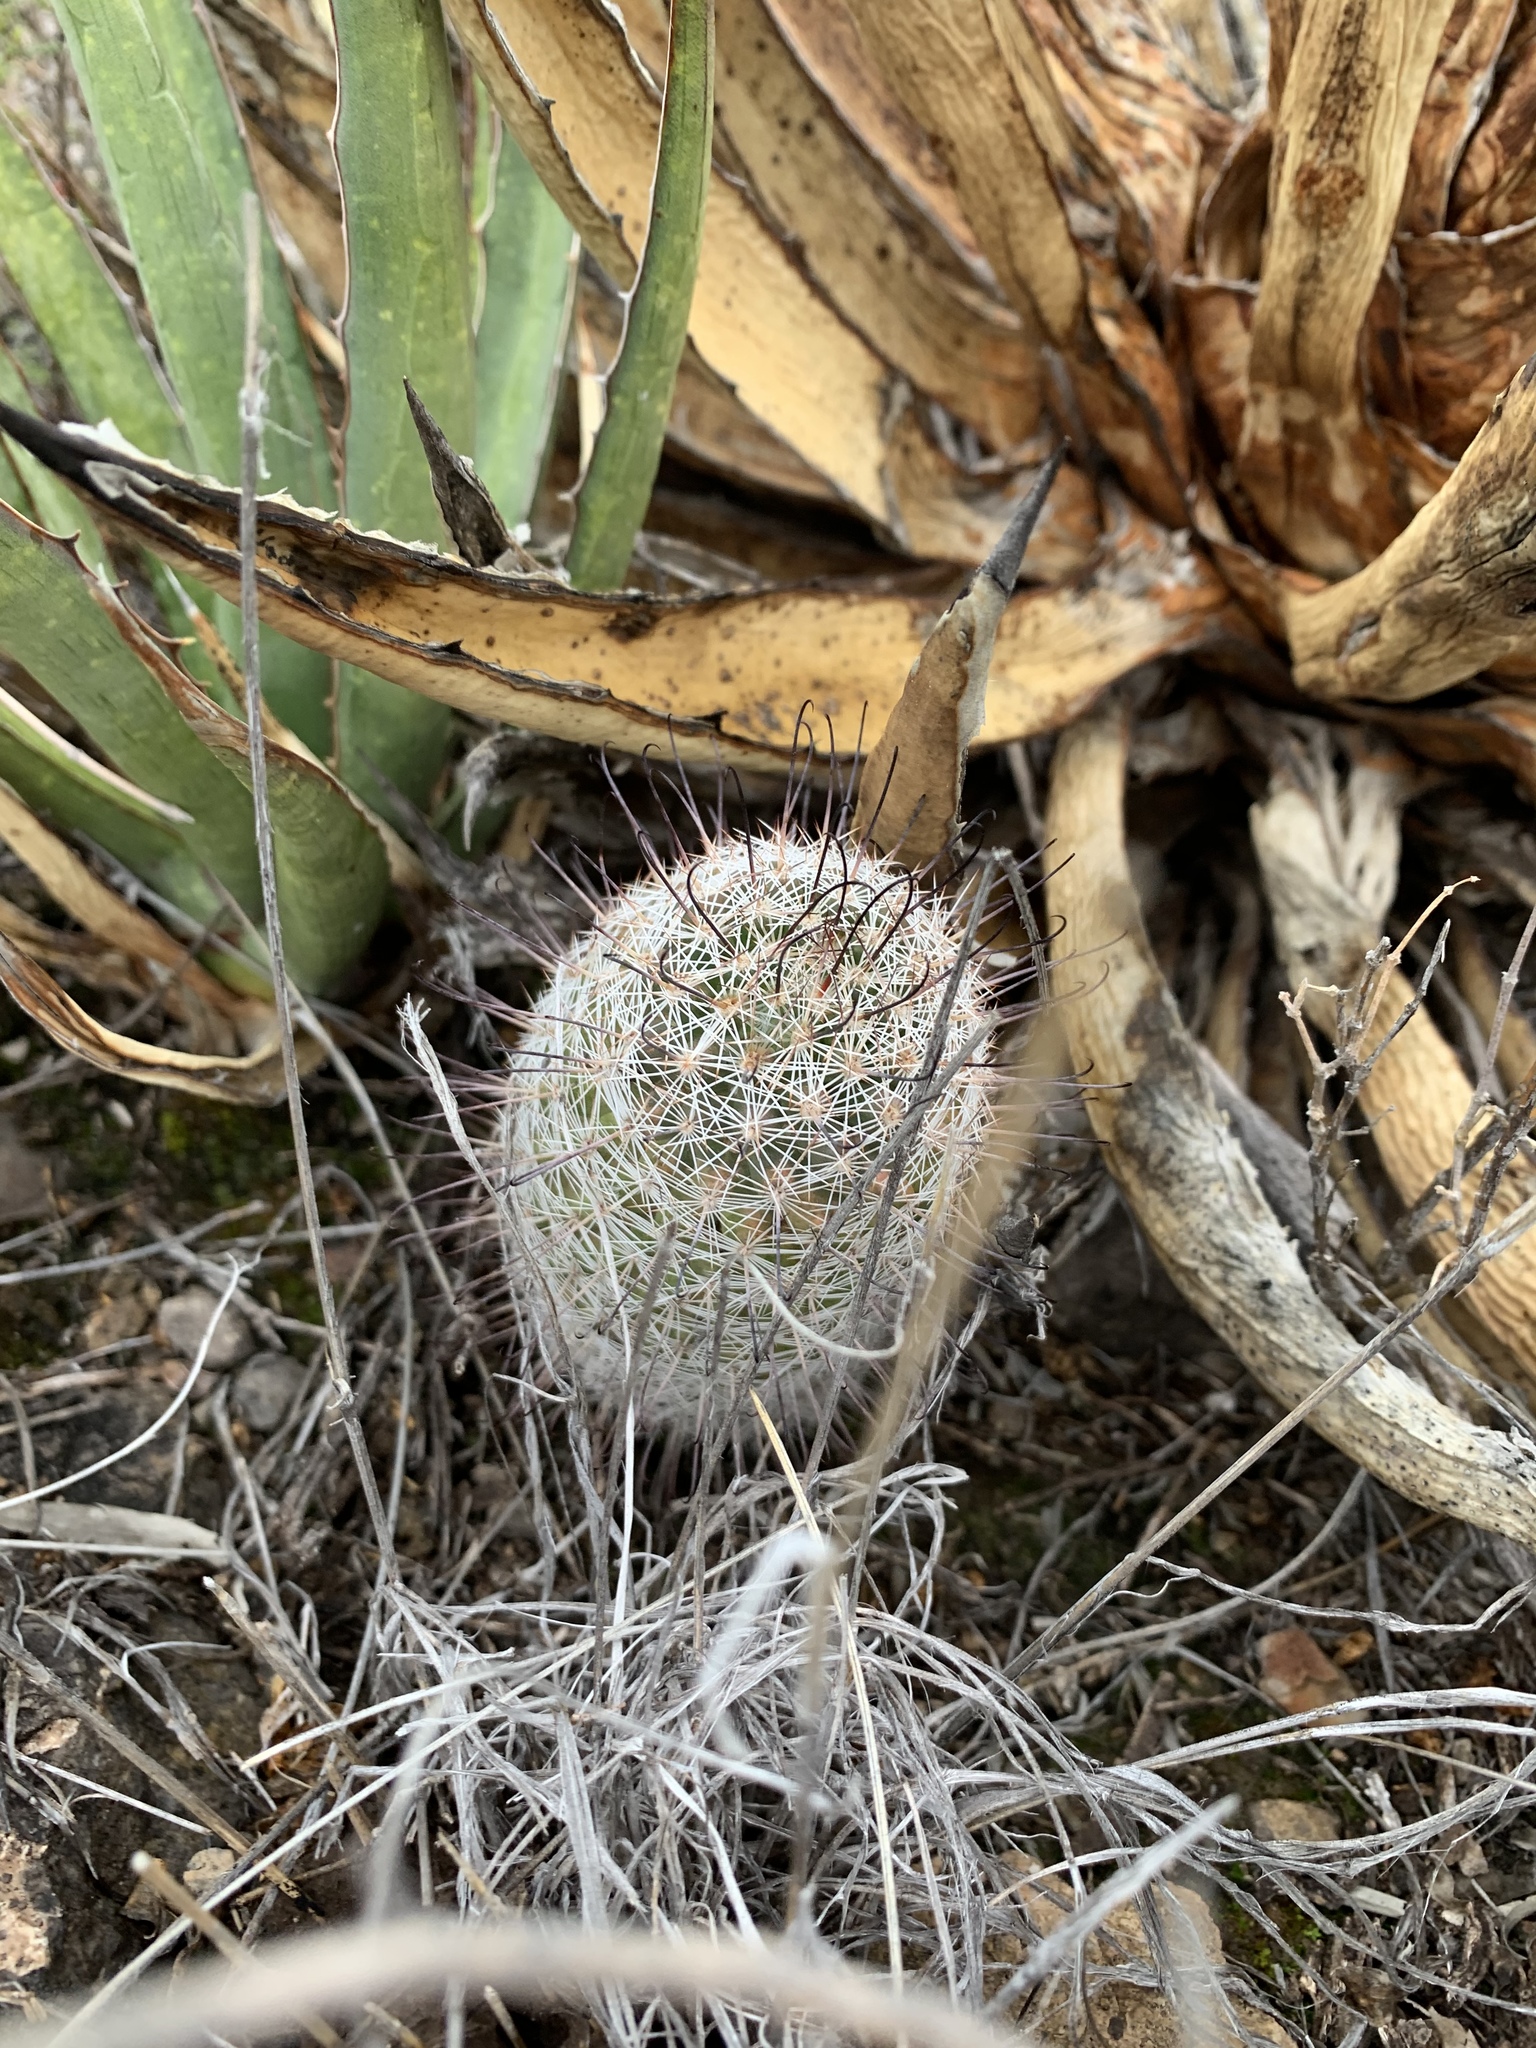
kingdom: Plantae
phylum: Tracheophyta
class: Magnoliopsida
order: Caryophyllales
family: Cactaceae
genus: Cochemiea
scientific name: Cochemiea grahamii
